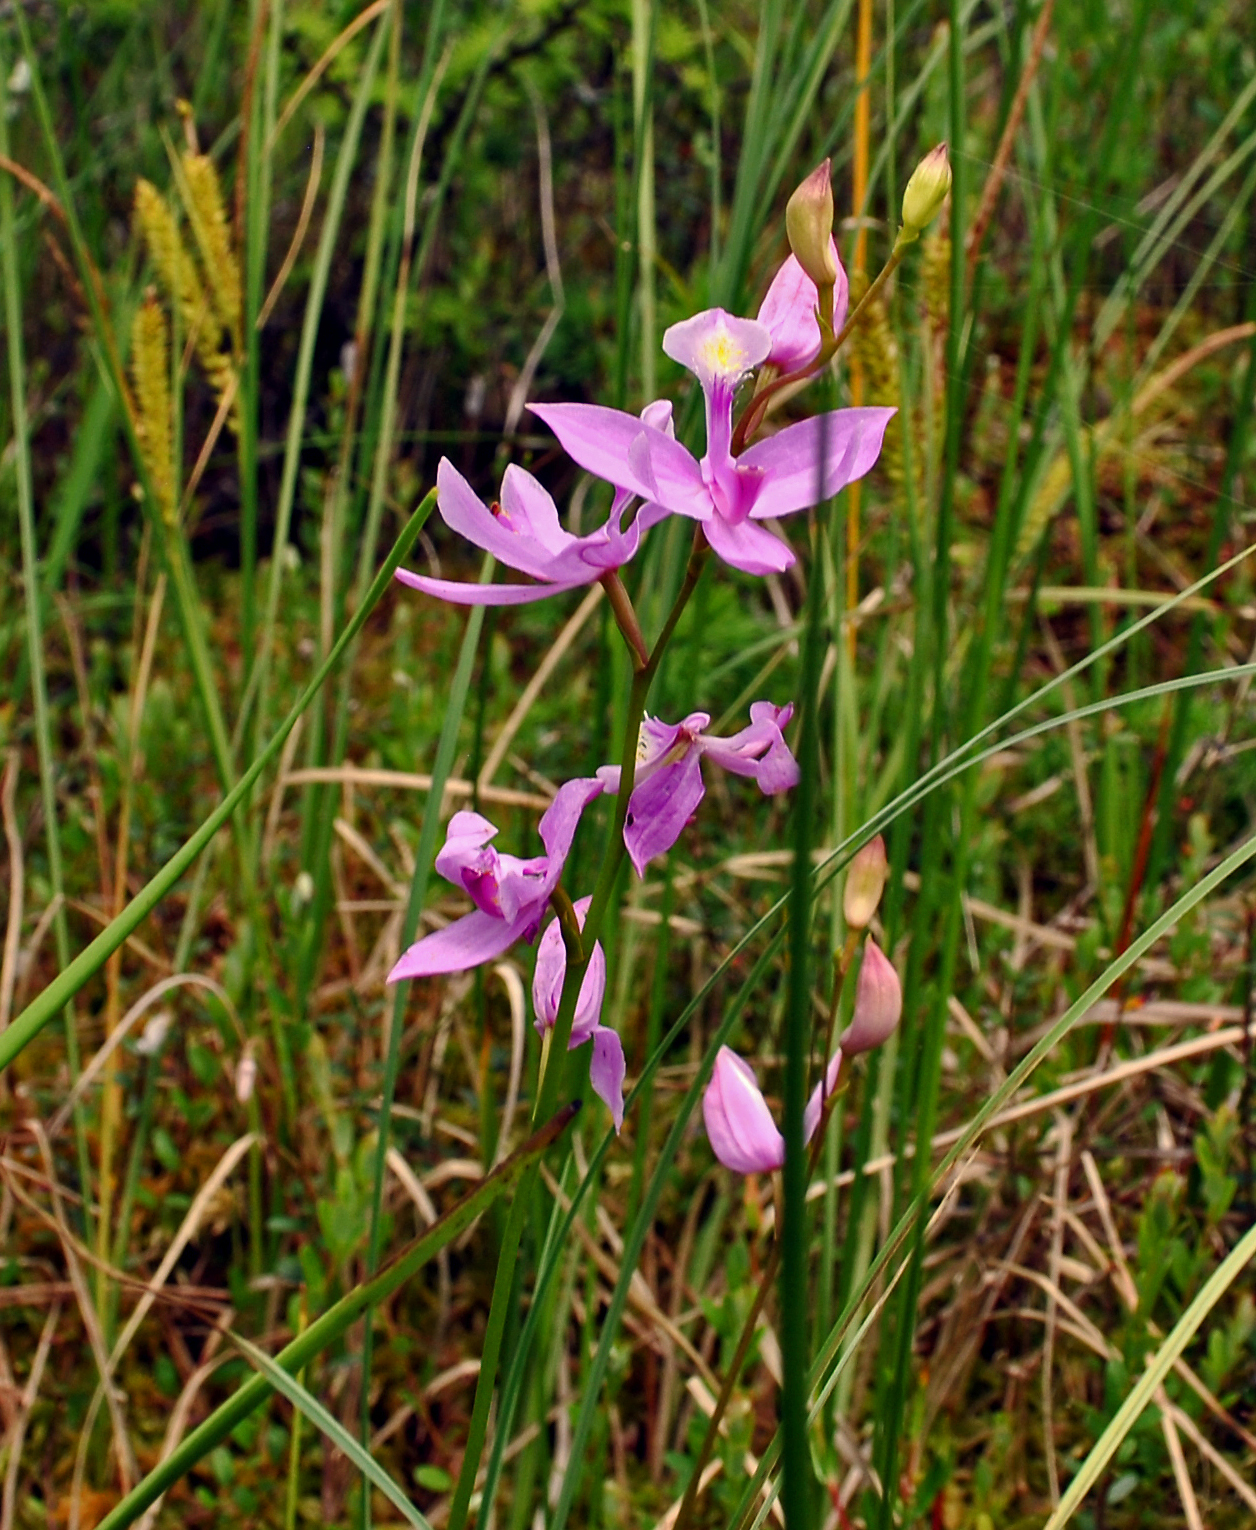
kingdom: Plantae
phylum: Tracheophyta
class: Liliopsida
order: Asparagales
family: Orchidaceae
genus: Calopogon
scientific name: Calopogon tuberosus
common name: Grass-pink
